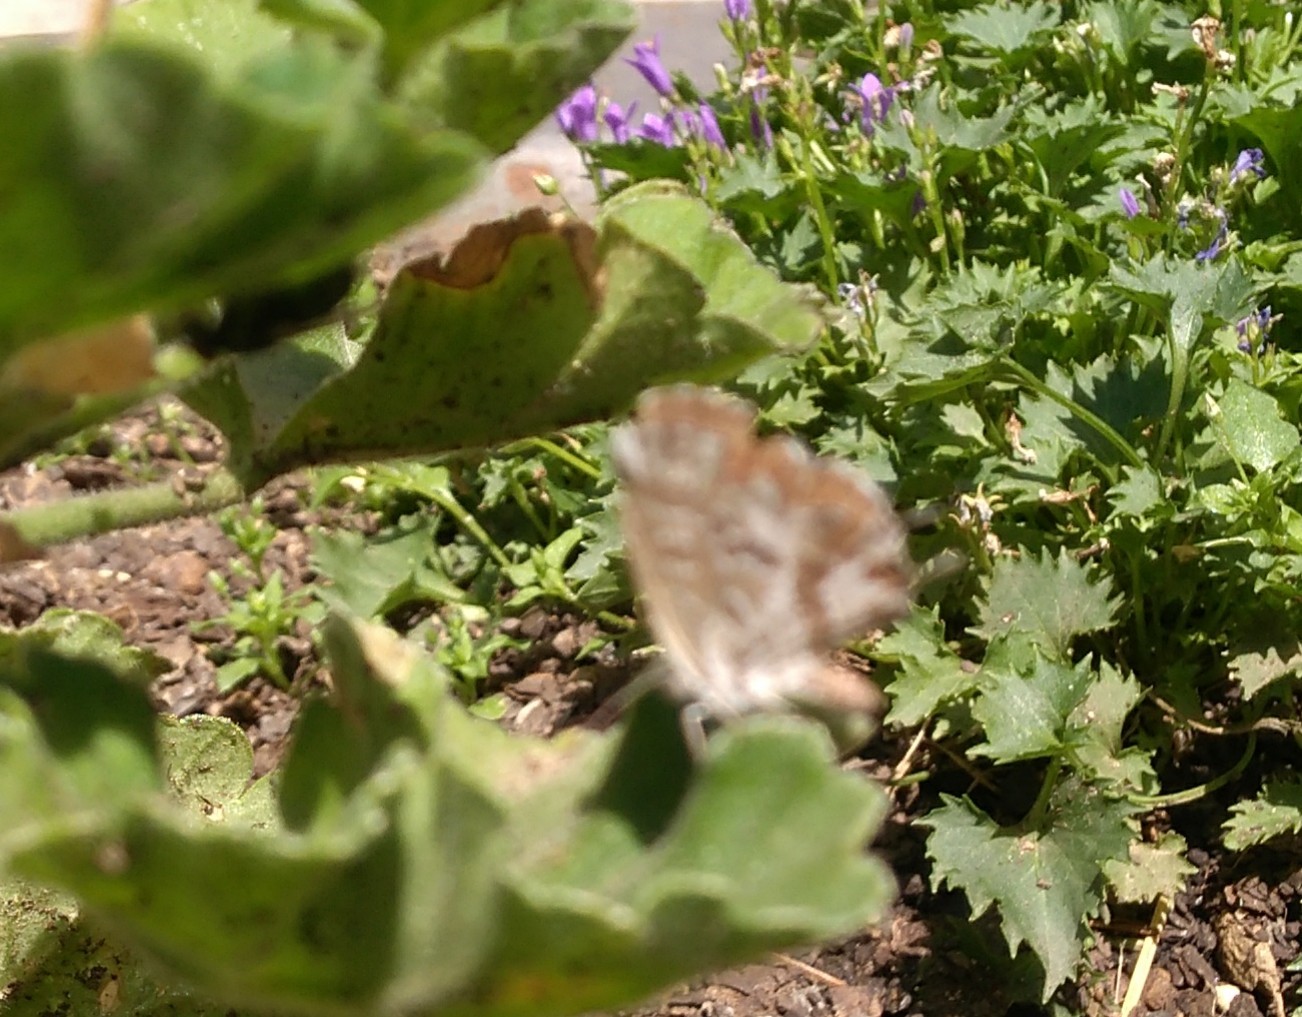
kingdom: Animalia
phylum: Arthropoda
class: Insecta
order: Lepidoptera
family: Lycaenidae
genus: Cacyreus
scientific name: Cacyreus marshalli
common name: Geranium bronze
